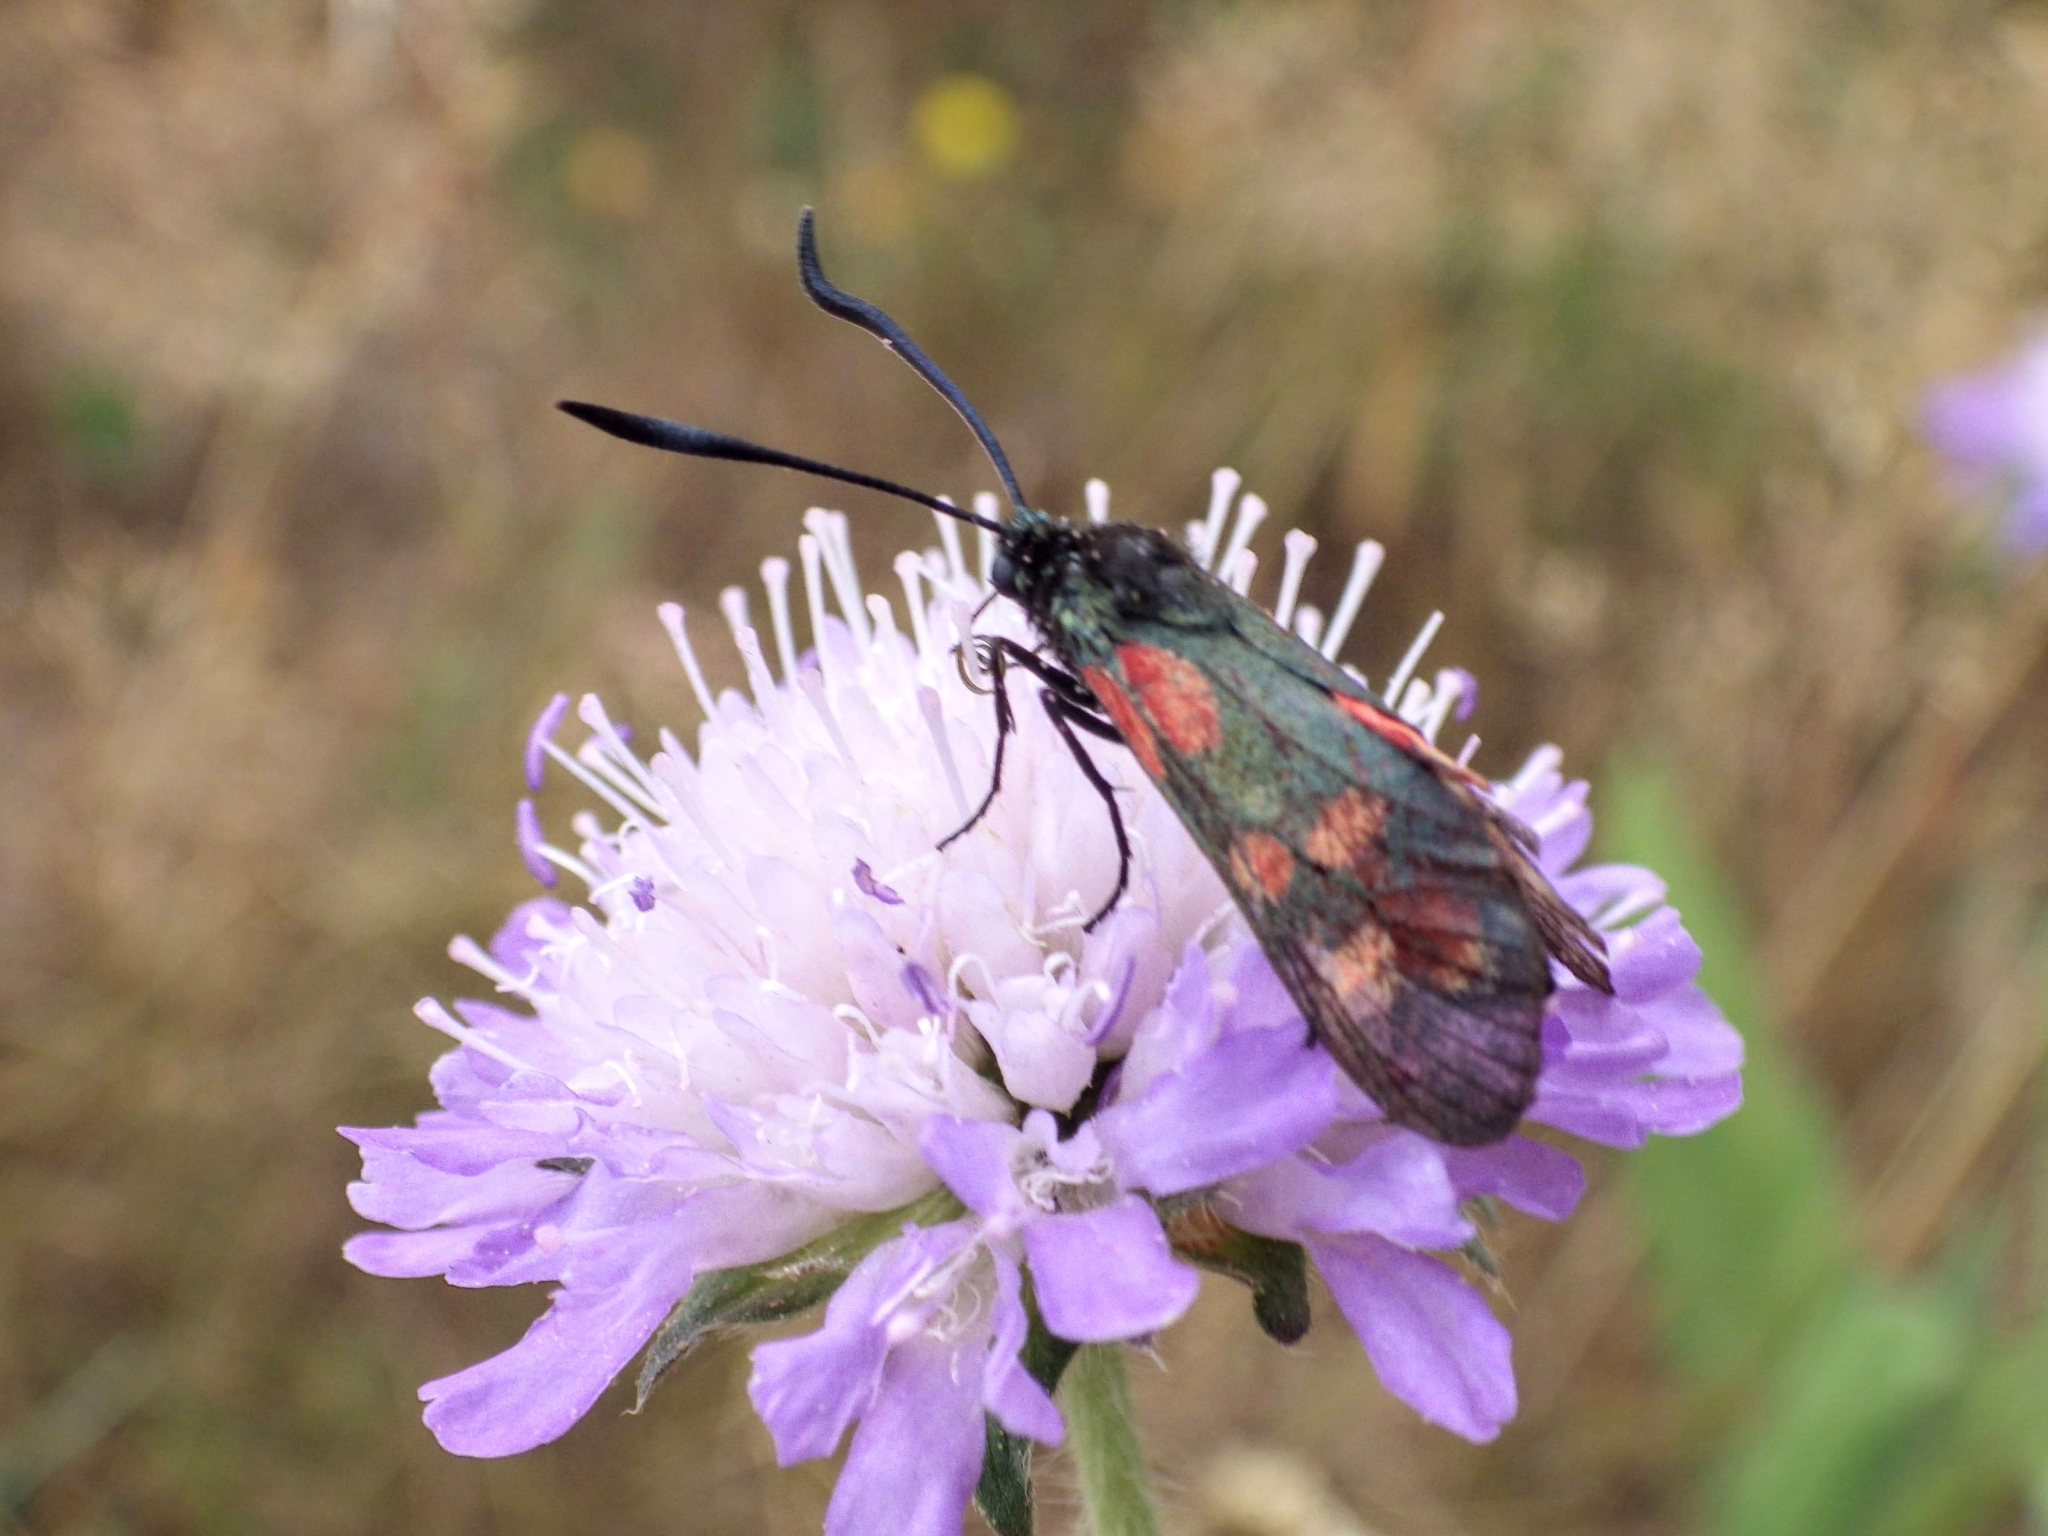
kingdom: Animalia
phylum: Arthropoda
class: Insecta
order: Lepidoptera
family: Zygaenidae
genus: Zygaena
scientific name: Zygaena filipendulae
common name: Six-spot burnet
